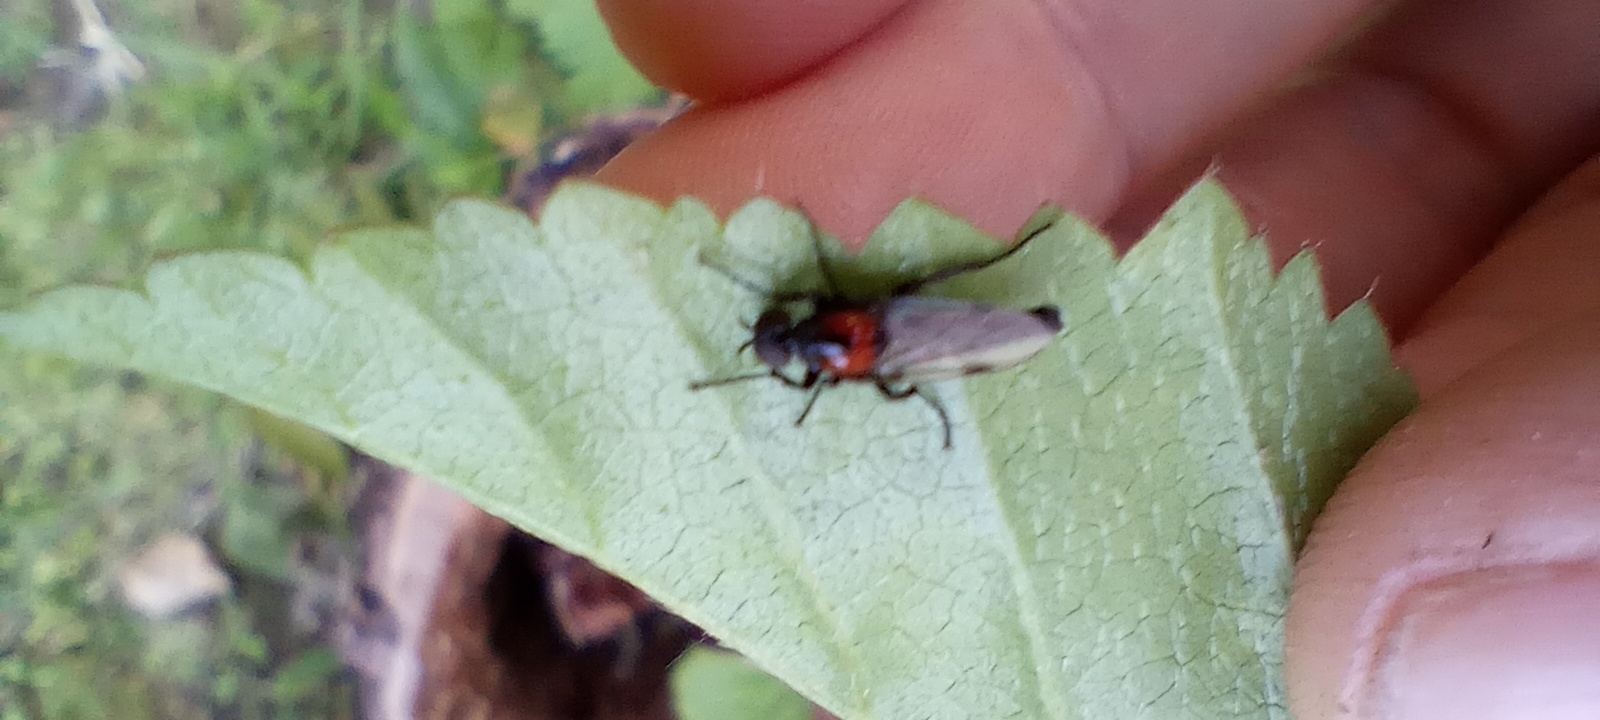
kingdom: Animalia
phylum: Arthropoda
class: Insecta
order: Diptera
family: Bibionidae
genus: Dilophus
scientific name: Dilophus pectoralis
